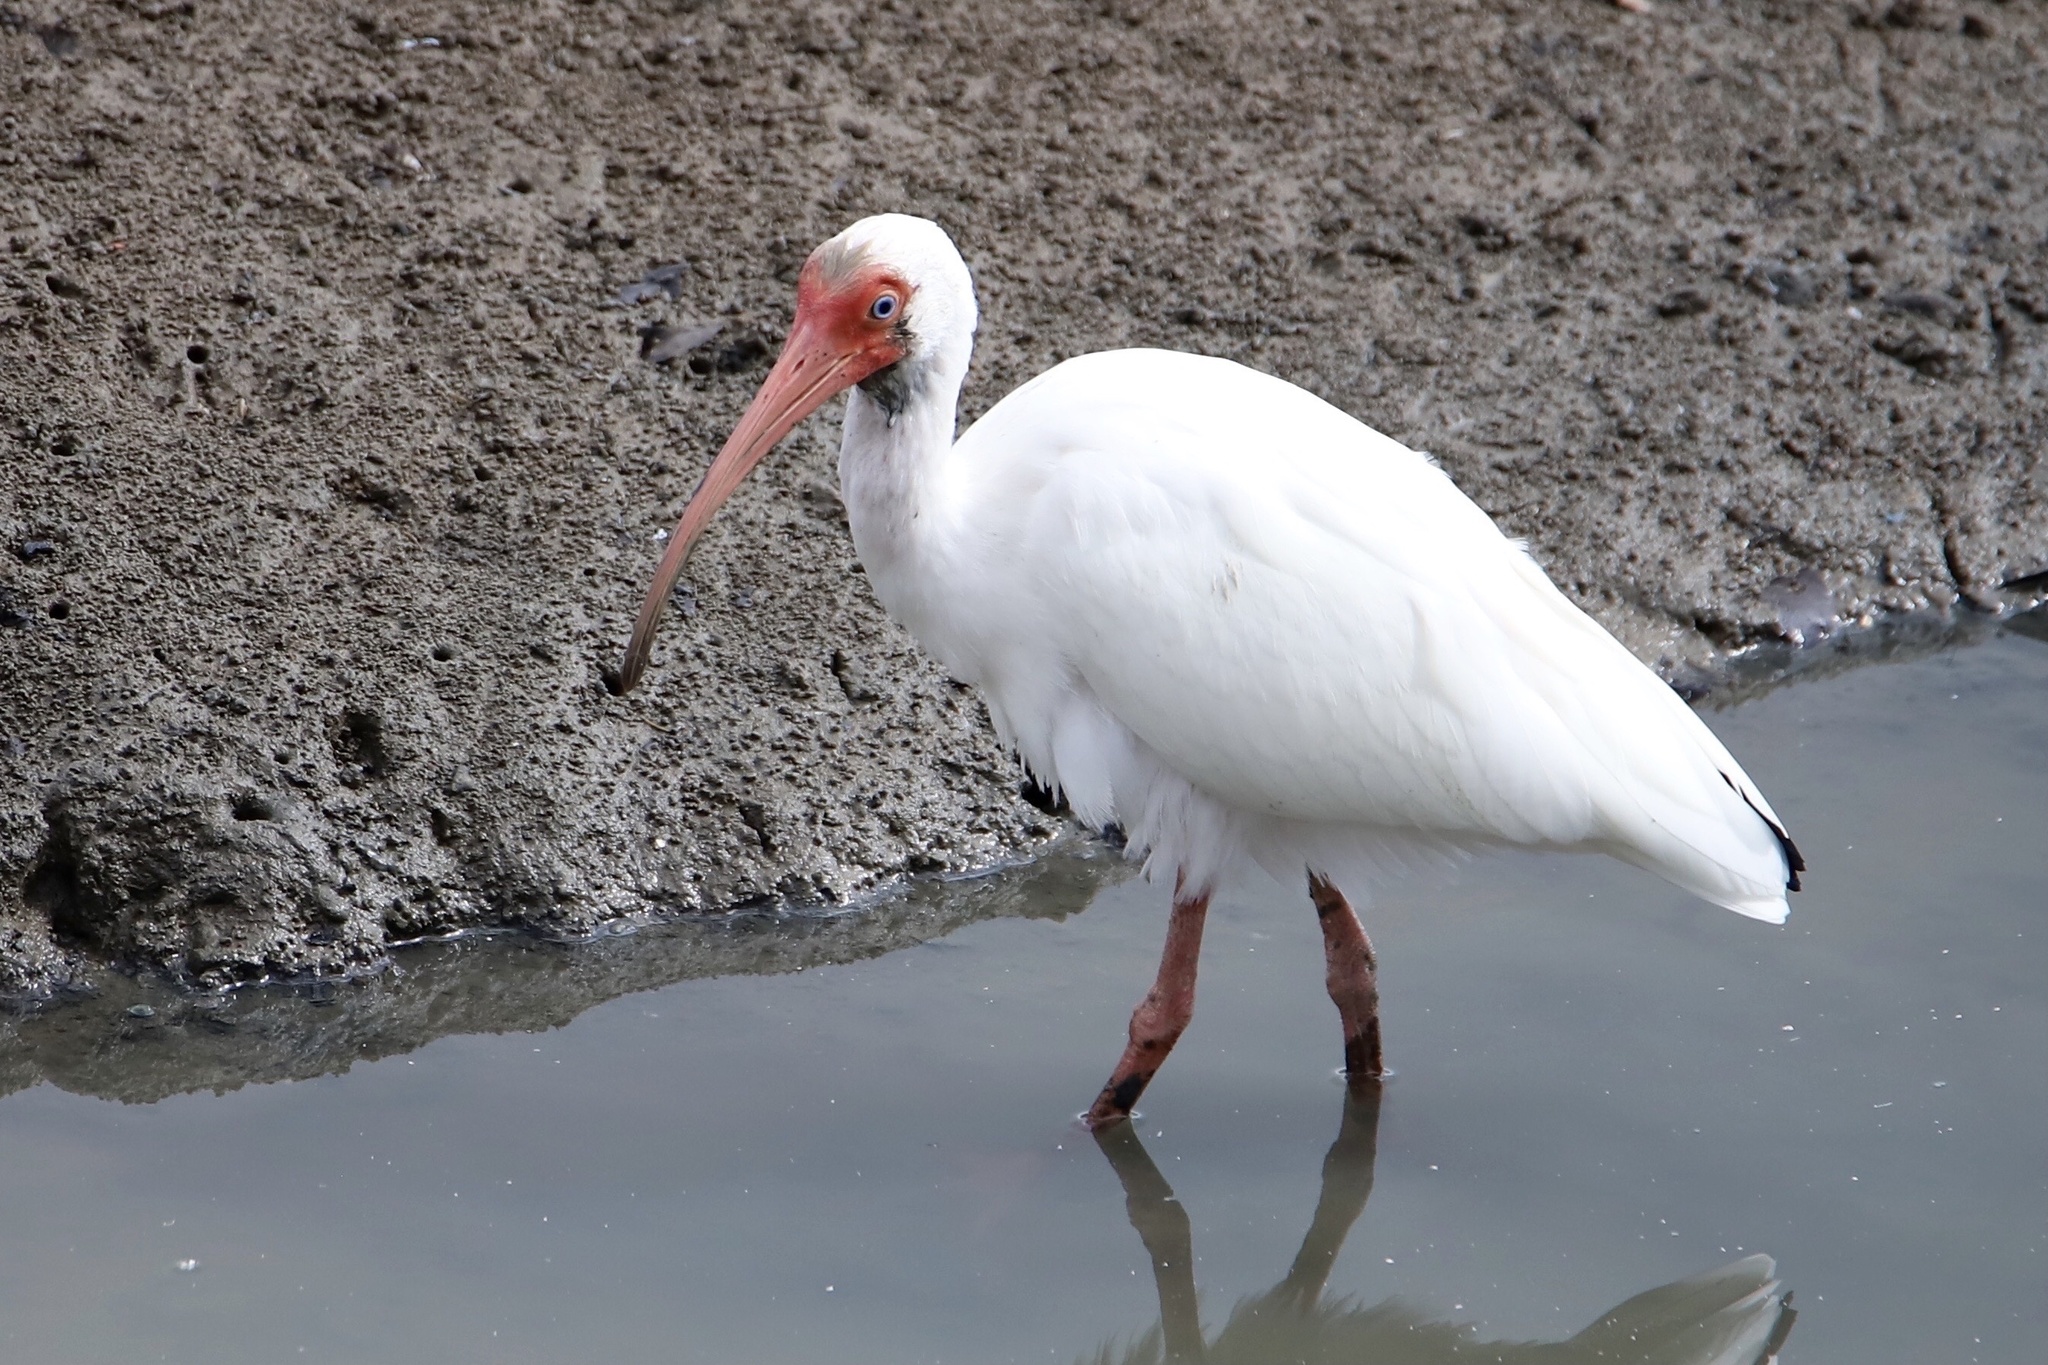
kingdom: Animalia
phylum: Chordata
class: Aves
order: Pelecaniformes
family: Threskiornithidae
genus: Eudocimus
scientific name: Eudocimus albus
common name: White ibis
